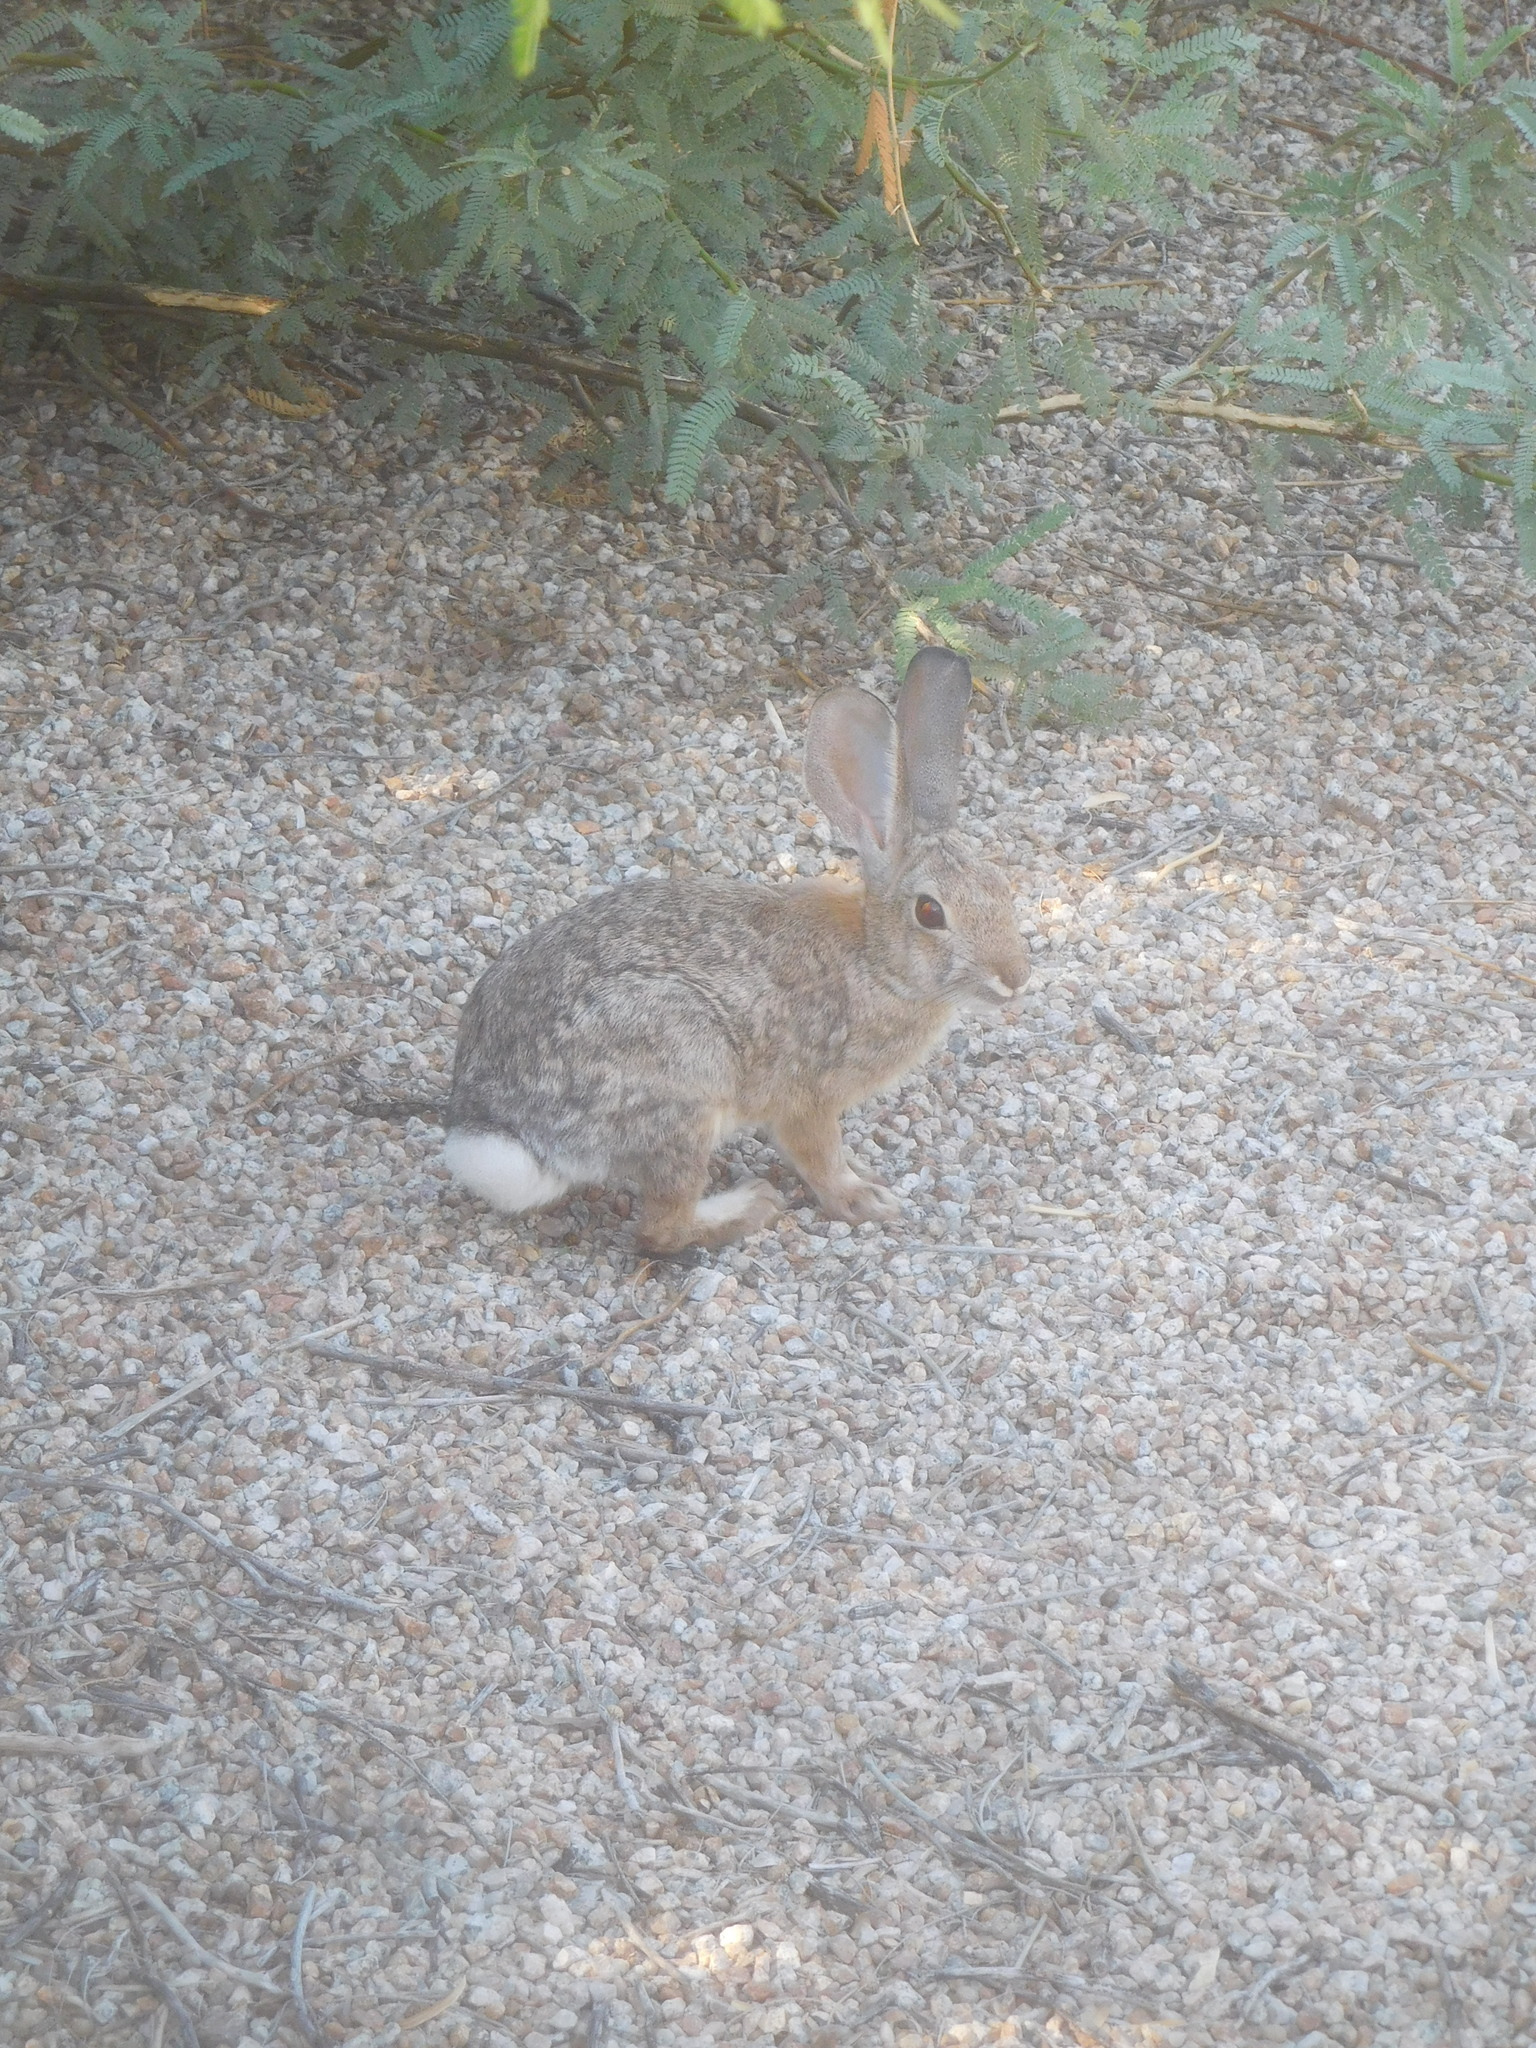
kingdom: Animalia
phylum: Chordata
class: Mammalia
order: Lagomorpha
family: Leporidae
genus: Sylvilagus
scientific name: Sylvilagus audubonii
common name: Desert cottontail
